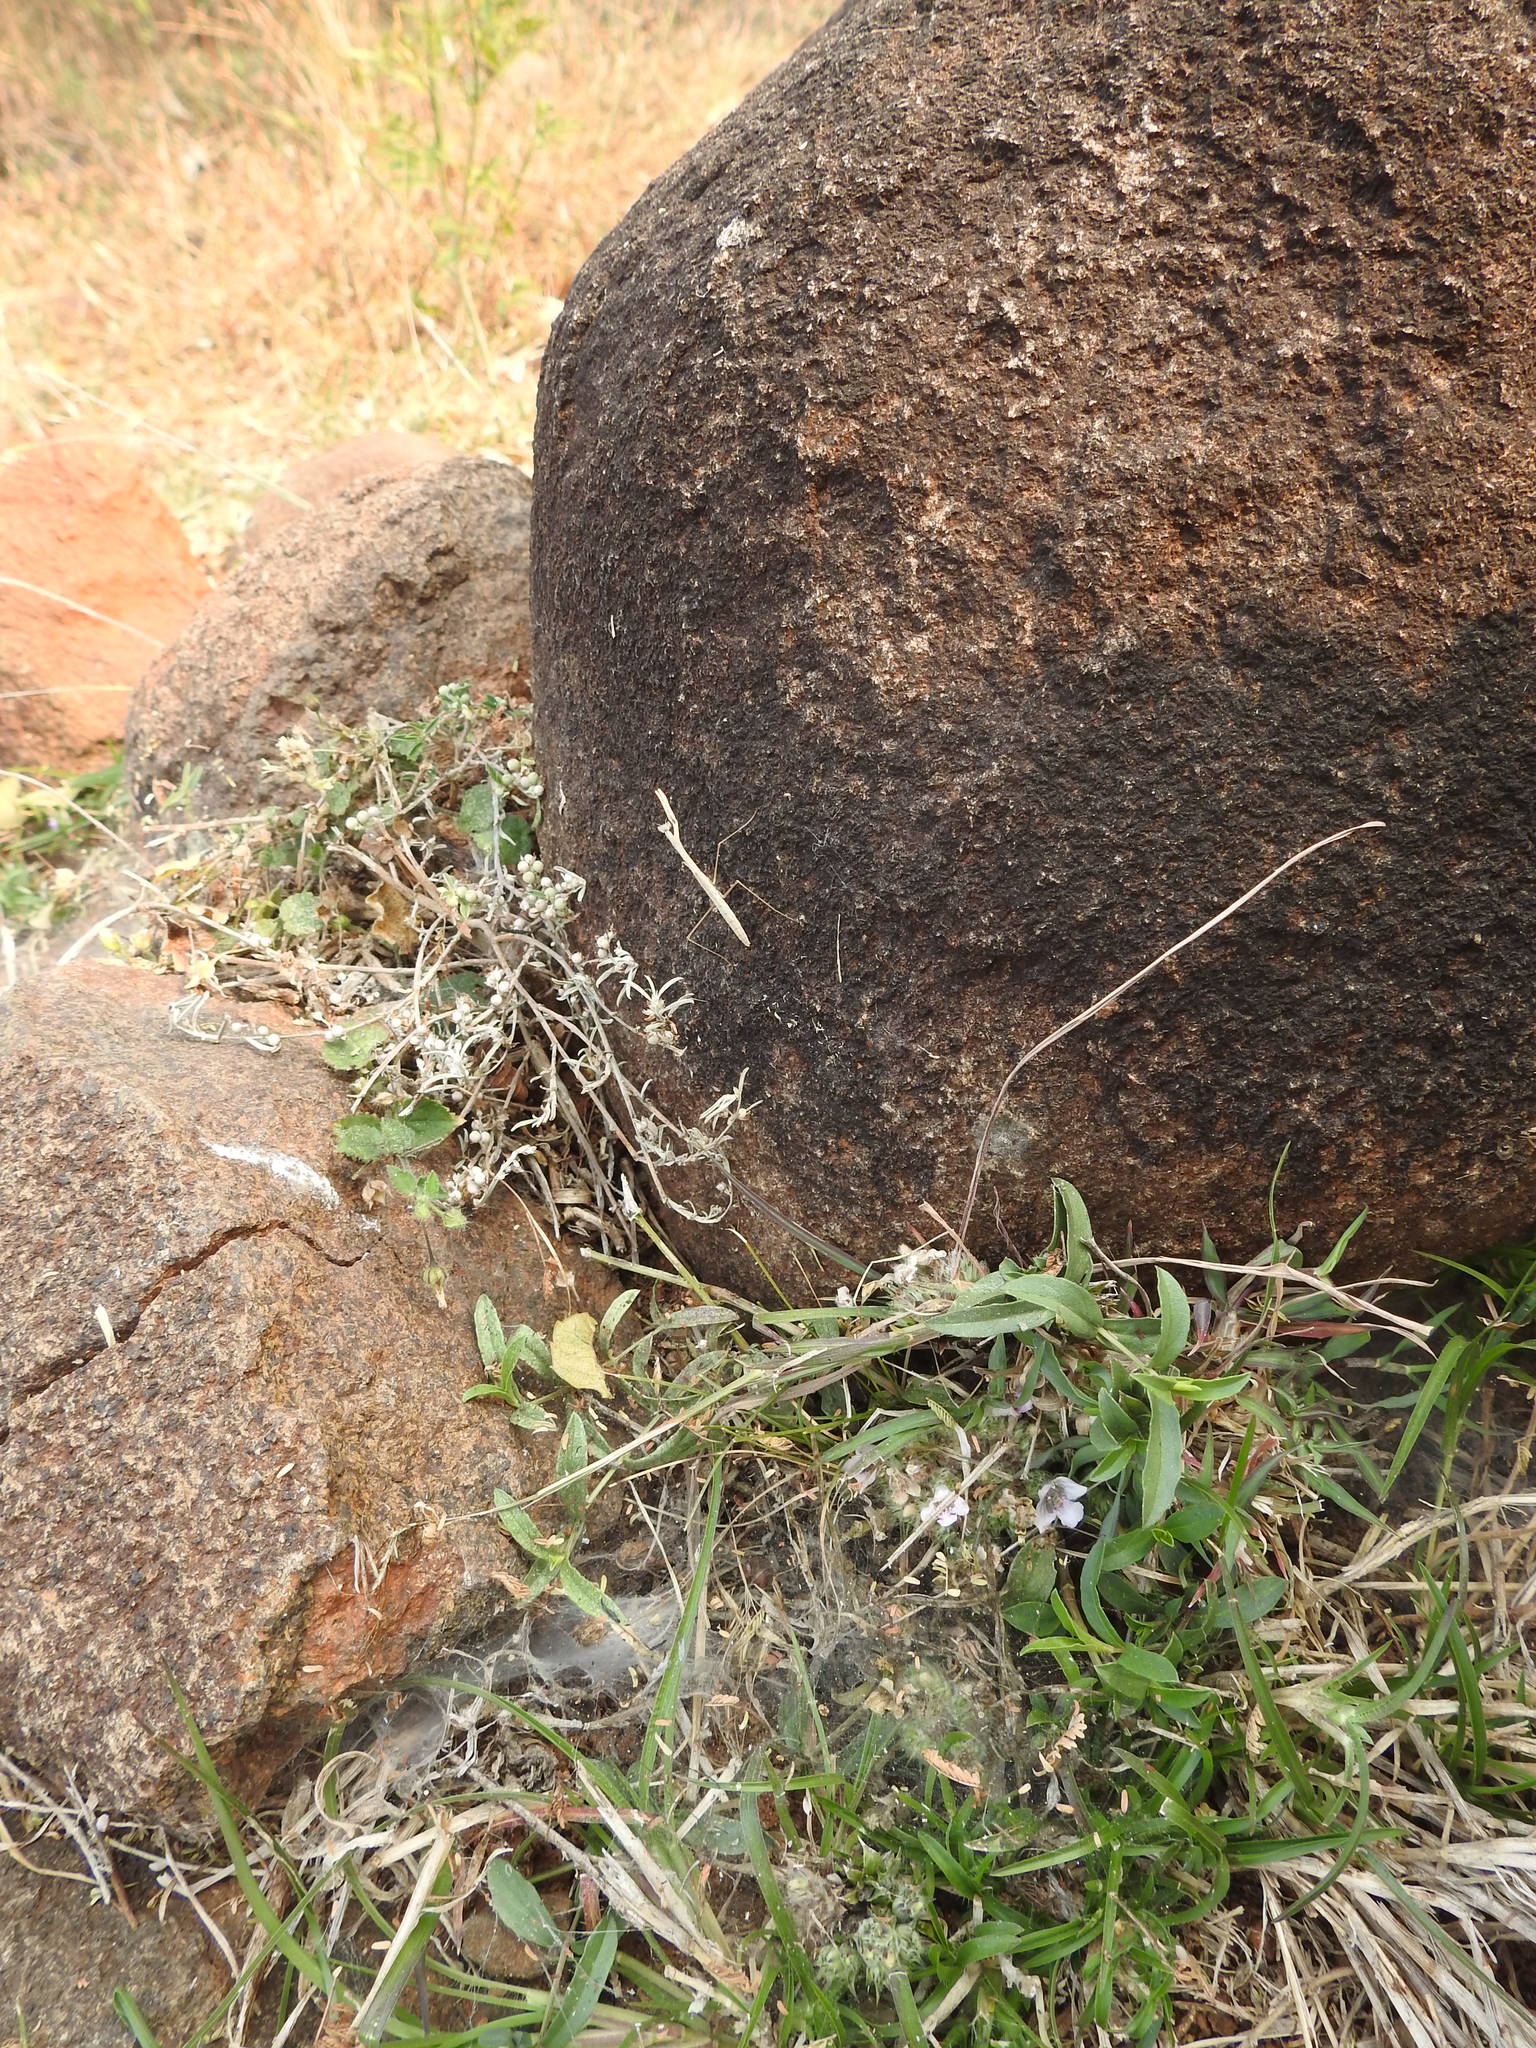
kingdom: Plantae
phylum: Tracheophyta
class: Magnoliopsida
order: Lamiales
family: Acanthaceae
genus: Lepidagathis
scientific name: Lepidagathis cristata
